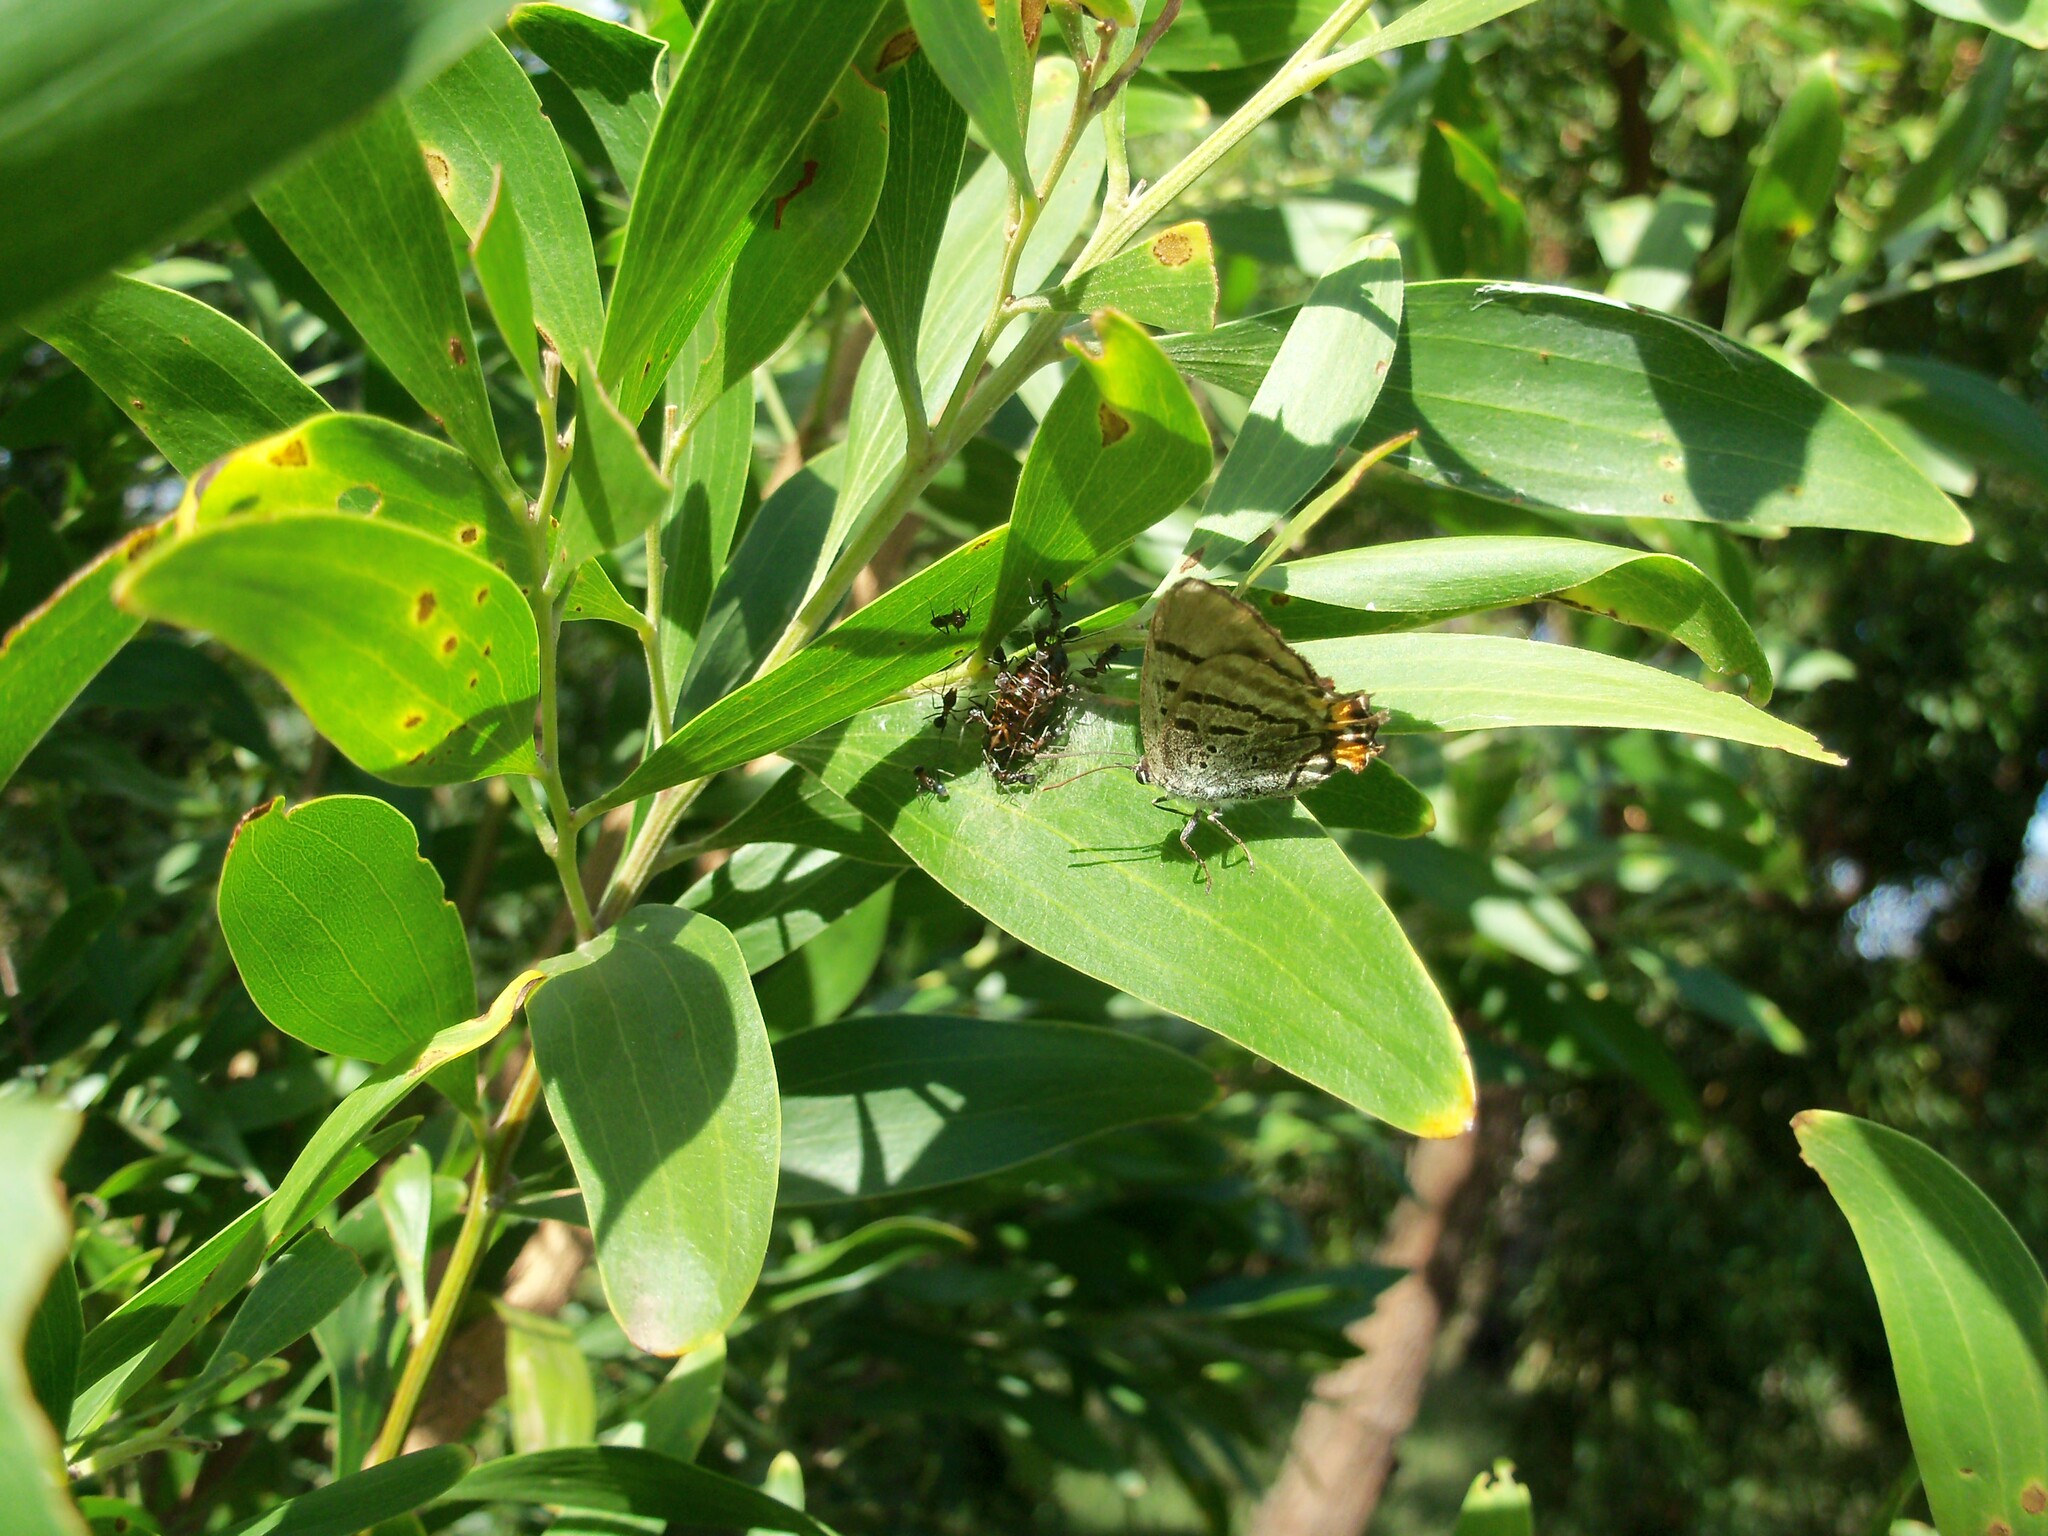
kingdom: Animalia
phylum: Arthropoda
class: Insecta
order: Lepidoptera
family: Lycaenidae
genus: Jalmenus
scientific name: Jalmenus evagoras
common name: Common imperial blue
